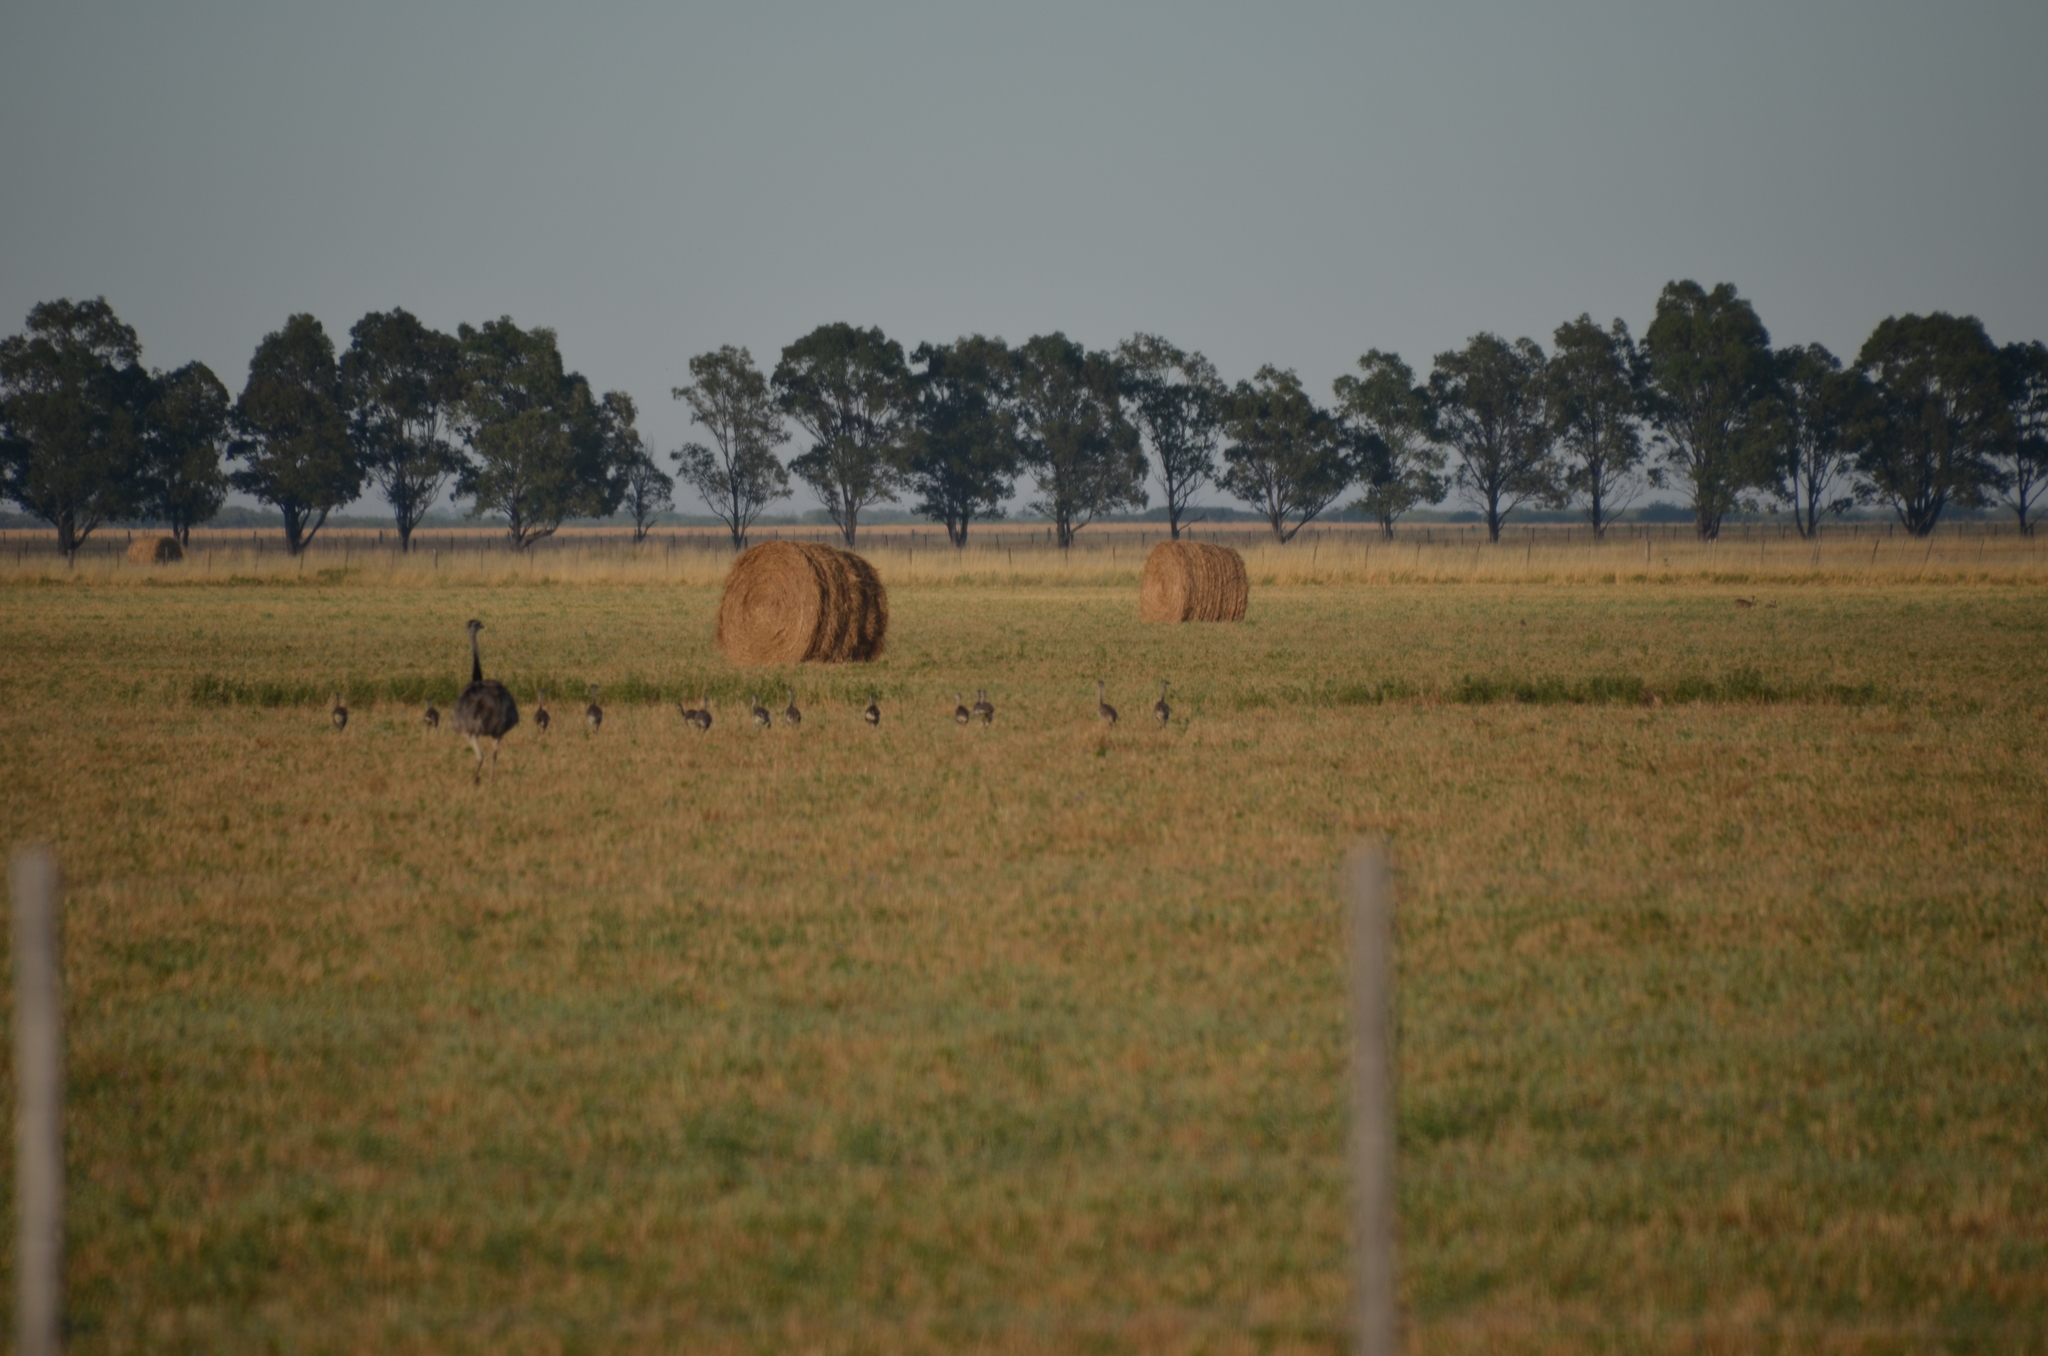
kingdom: Animalia
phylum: Chordata
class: Aves
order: Rheiformes
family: Rheidae
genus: Rhea
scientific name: Rhea americana
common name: Greater rhea
